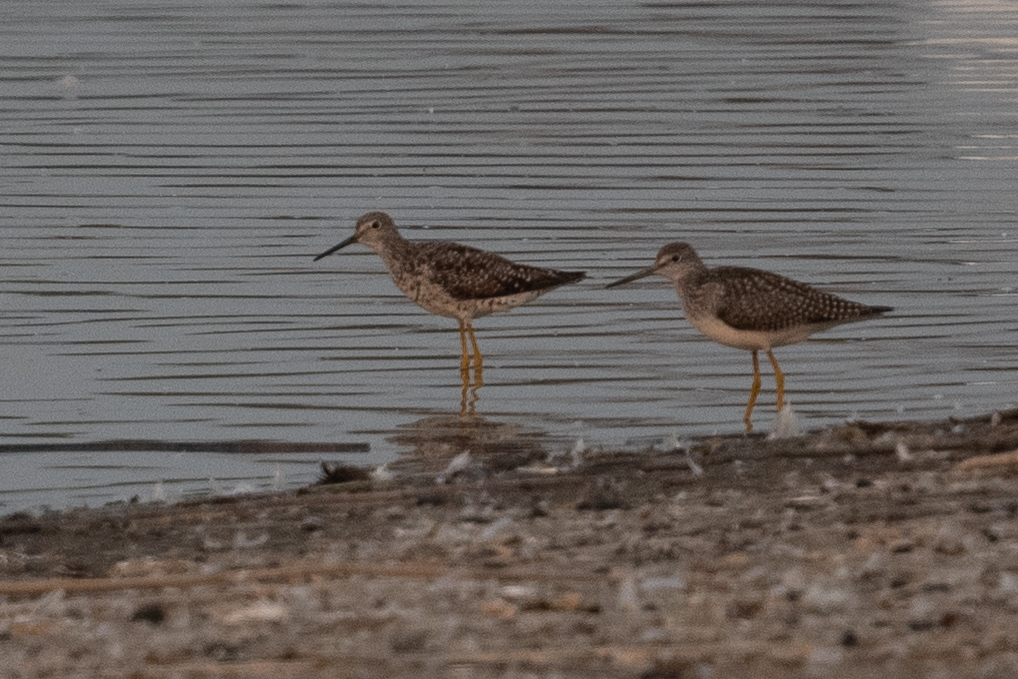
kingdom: Animalia
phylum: Chordata
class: Aves
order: Charadriiformes
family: Scolopacidae
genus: Tringa
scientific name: Tringa melanoleuca
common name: Greater yellowlegs
